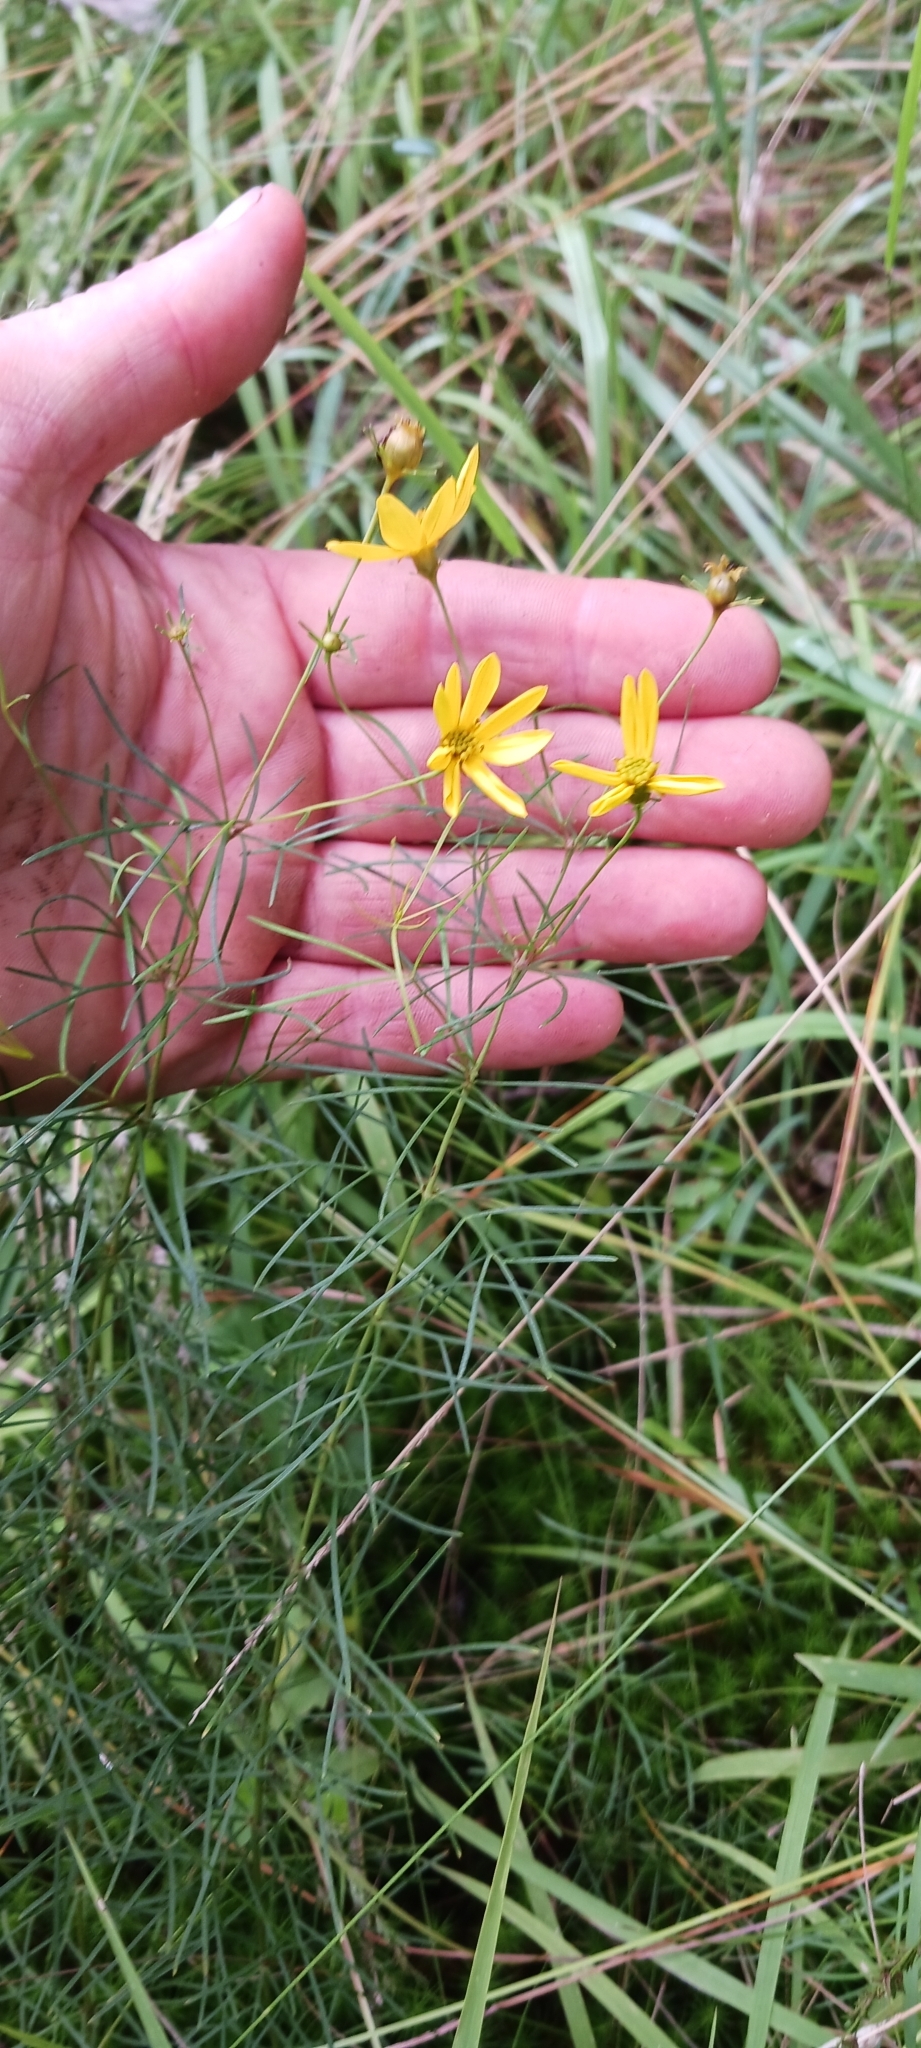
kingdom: Plantae
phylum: Tracheophyta
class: Magnoliopsida
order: Asterales
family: Asteraceae
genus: Coreopsis
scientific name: Coreopsis verticillata
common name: Whorled tickseed
